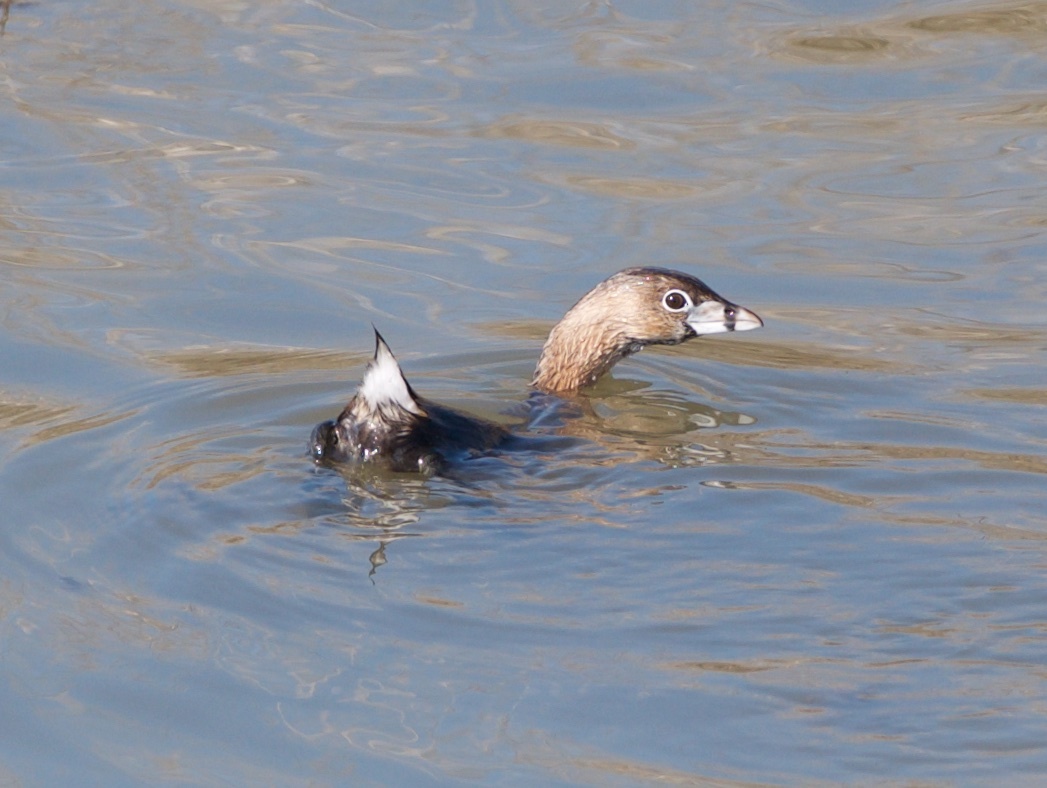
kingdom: Animalia
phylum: Chordata
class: Aves
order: Podicipediformes
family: Podicipedidae
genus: Podilymbus
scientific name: Podilymbus podiceps
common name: Pied-billed grebe
